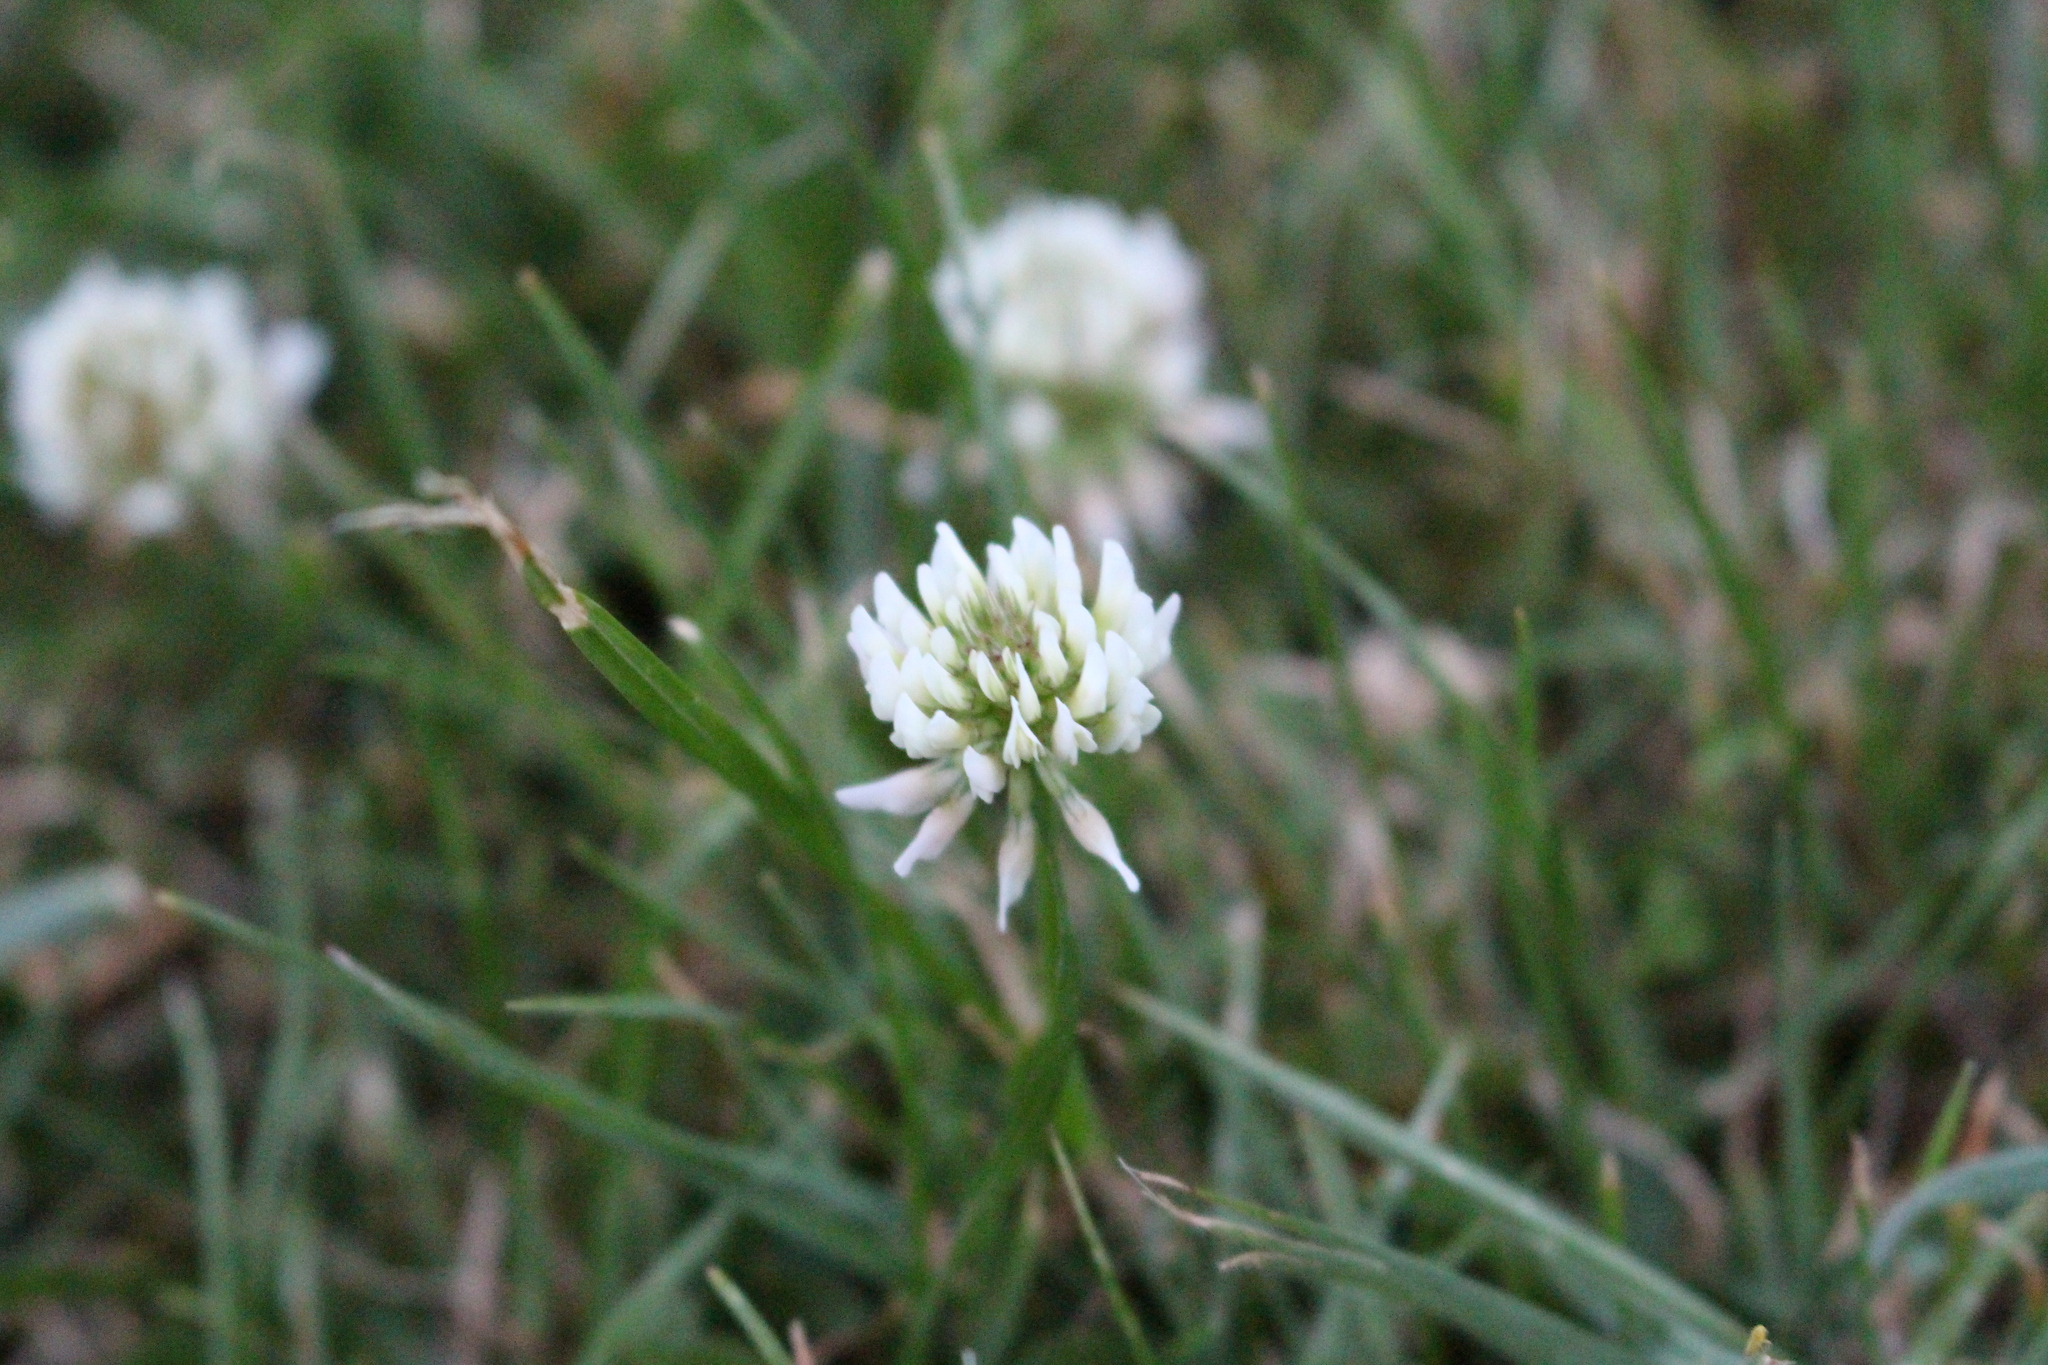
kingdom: Plantae
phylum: Tracheophyta
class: Magnoliopsida
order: Fabales
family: Fabaceae
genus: Trifolium
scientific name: Trifolium repens
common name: White clover
